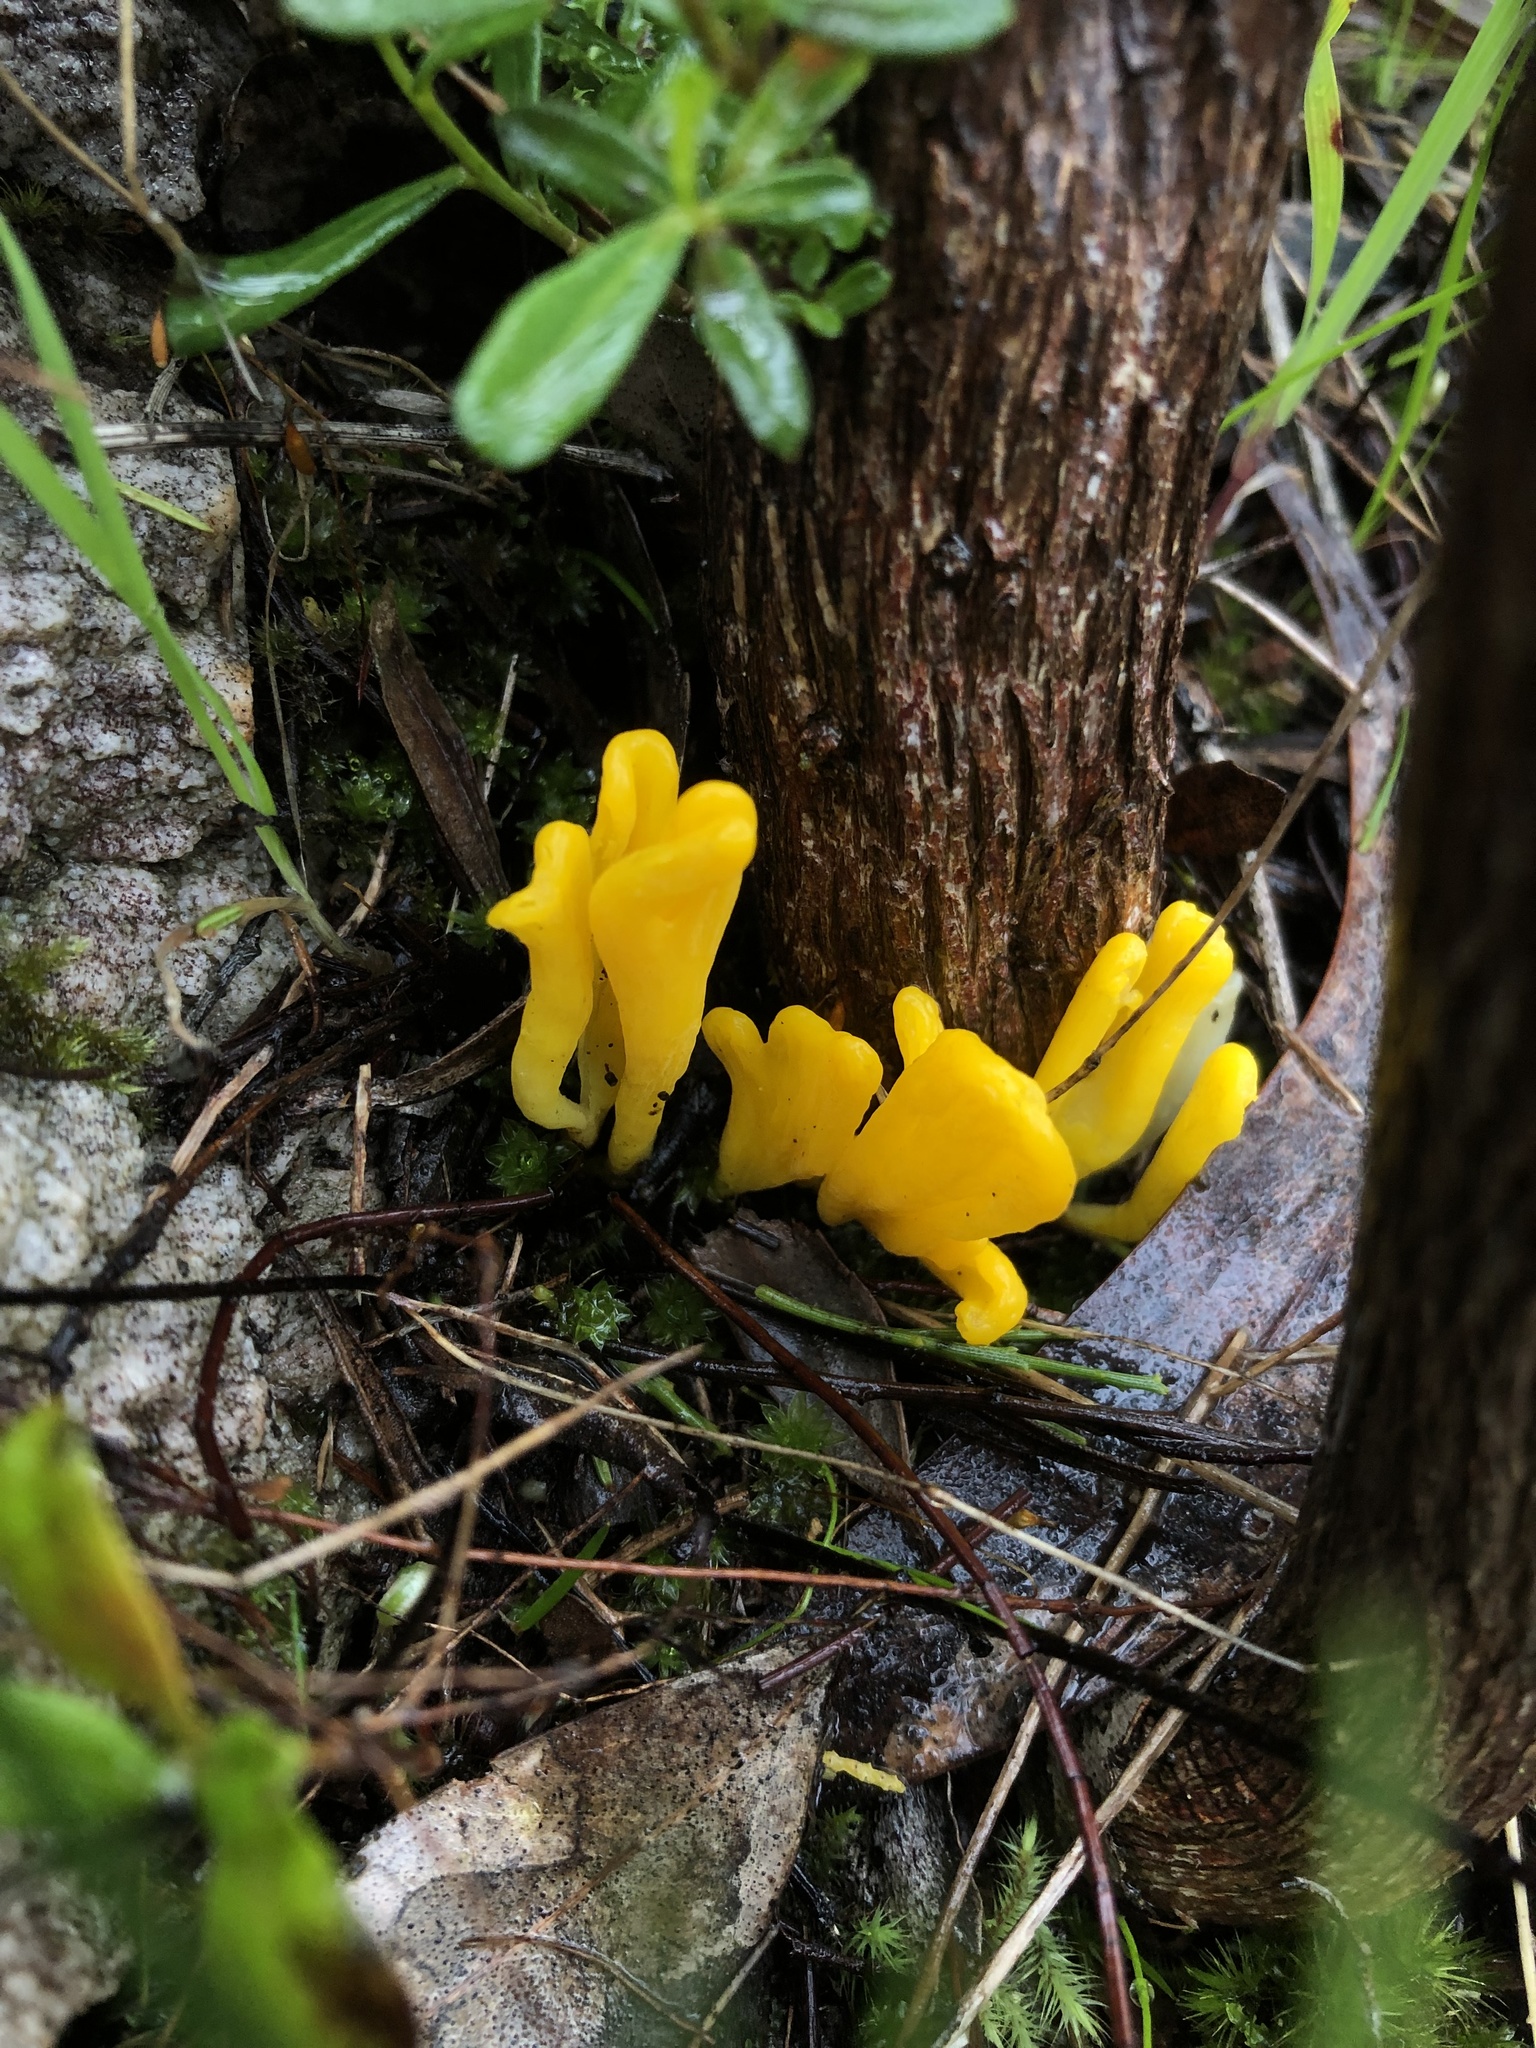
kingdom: Fungi
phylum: Basidiomycota
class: Agaricomycetes
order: Agaricales
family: Clavariaceae
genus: Clavulinopsis
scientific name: Clavulinopsis amoena
